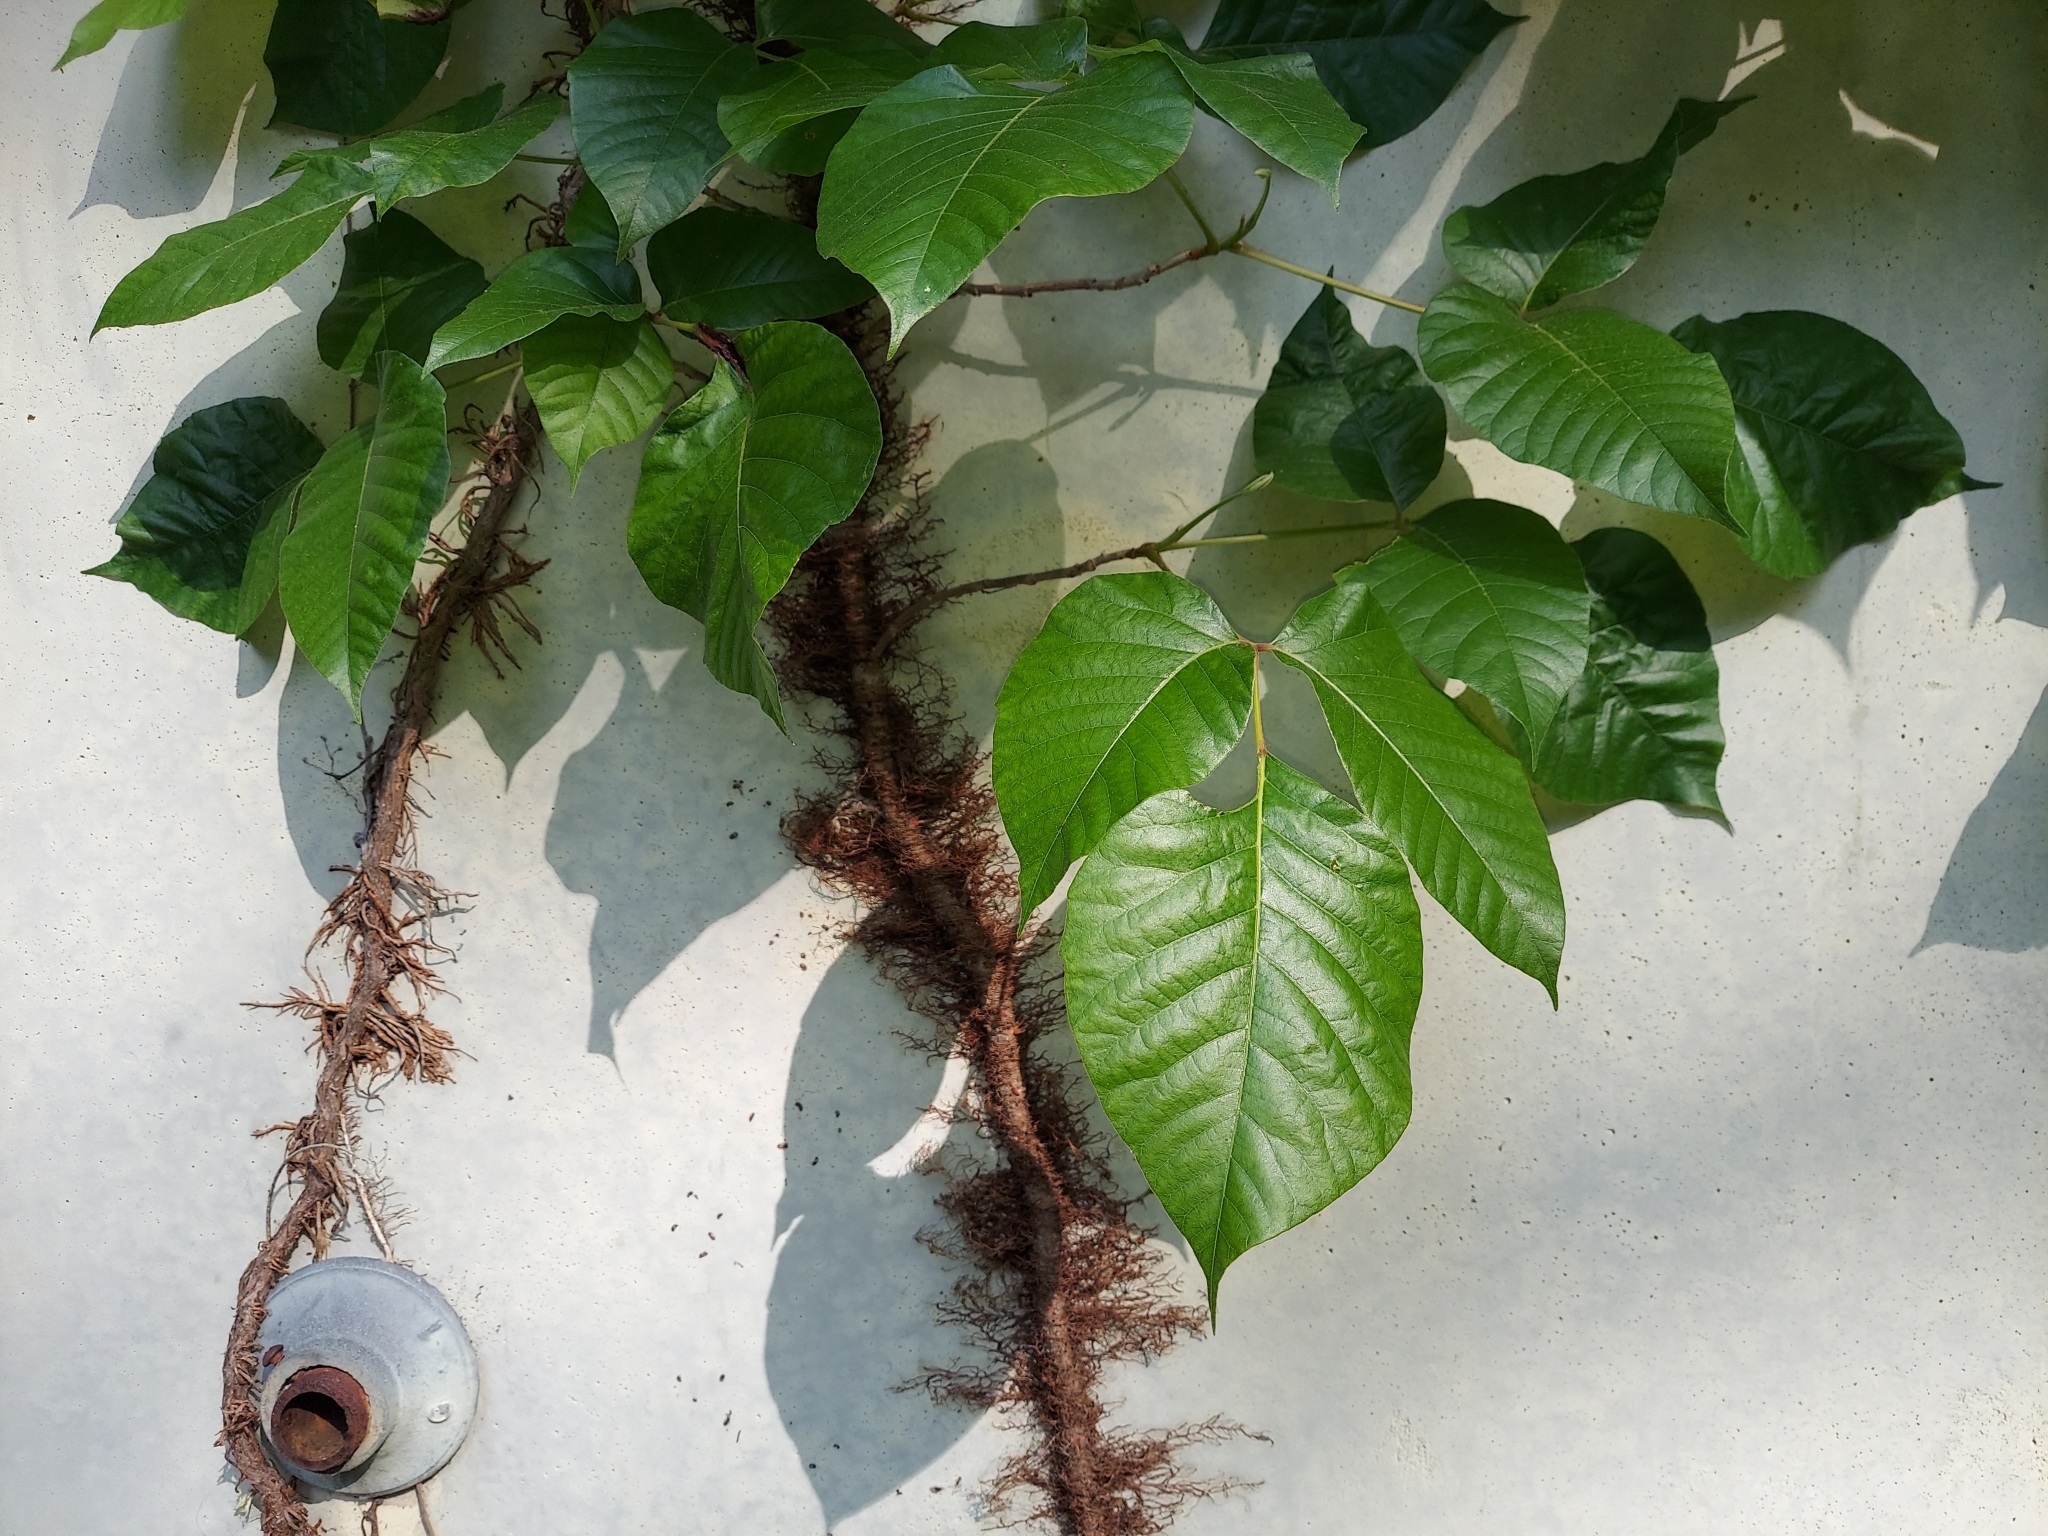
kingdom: Plantae
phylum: Tracheophyta
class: Magnoliopsida
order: Sapindales
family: Anacardiaceae
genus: Toxicodendron
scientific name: Toxicodendron radicans
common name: Poison ivy
